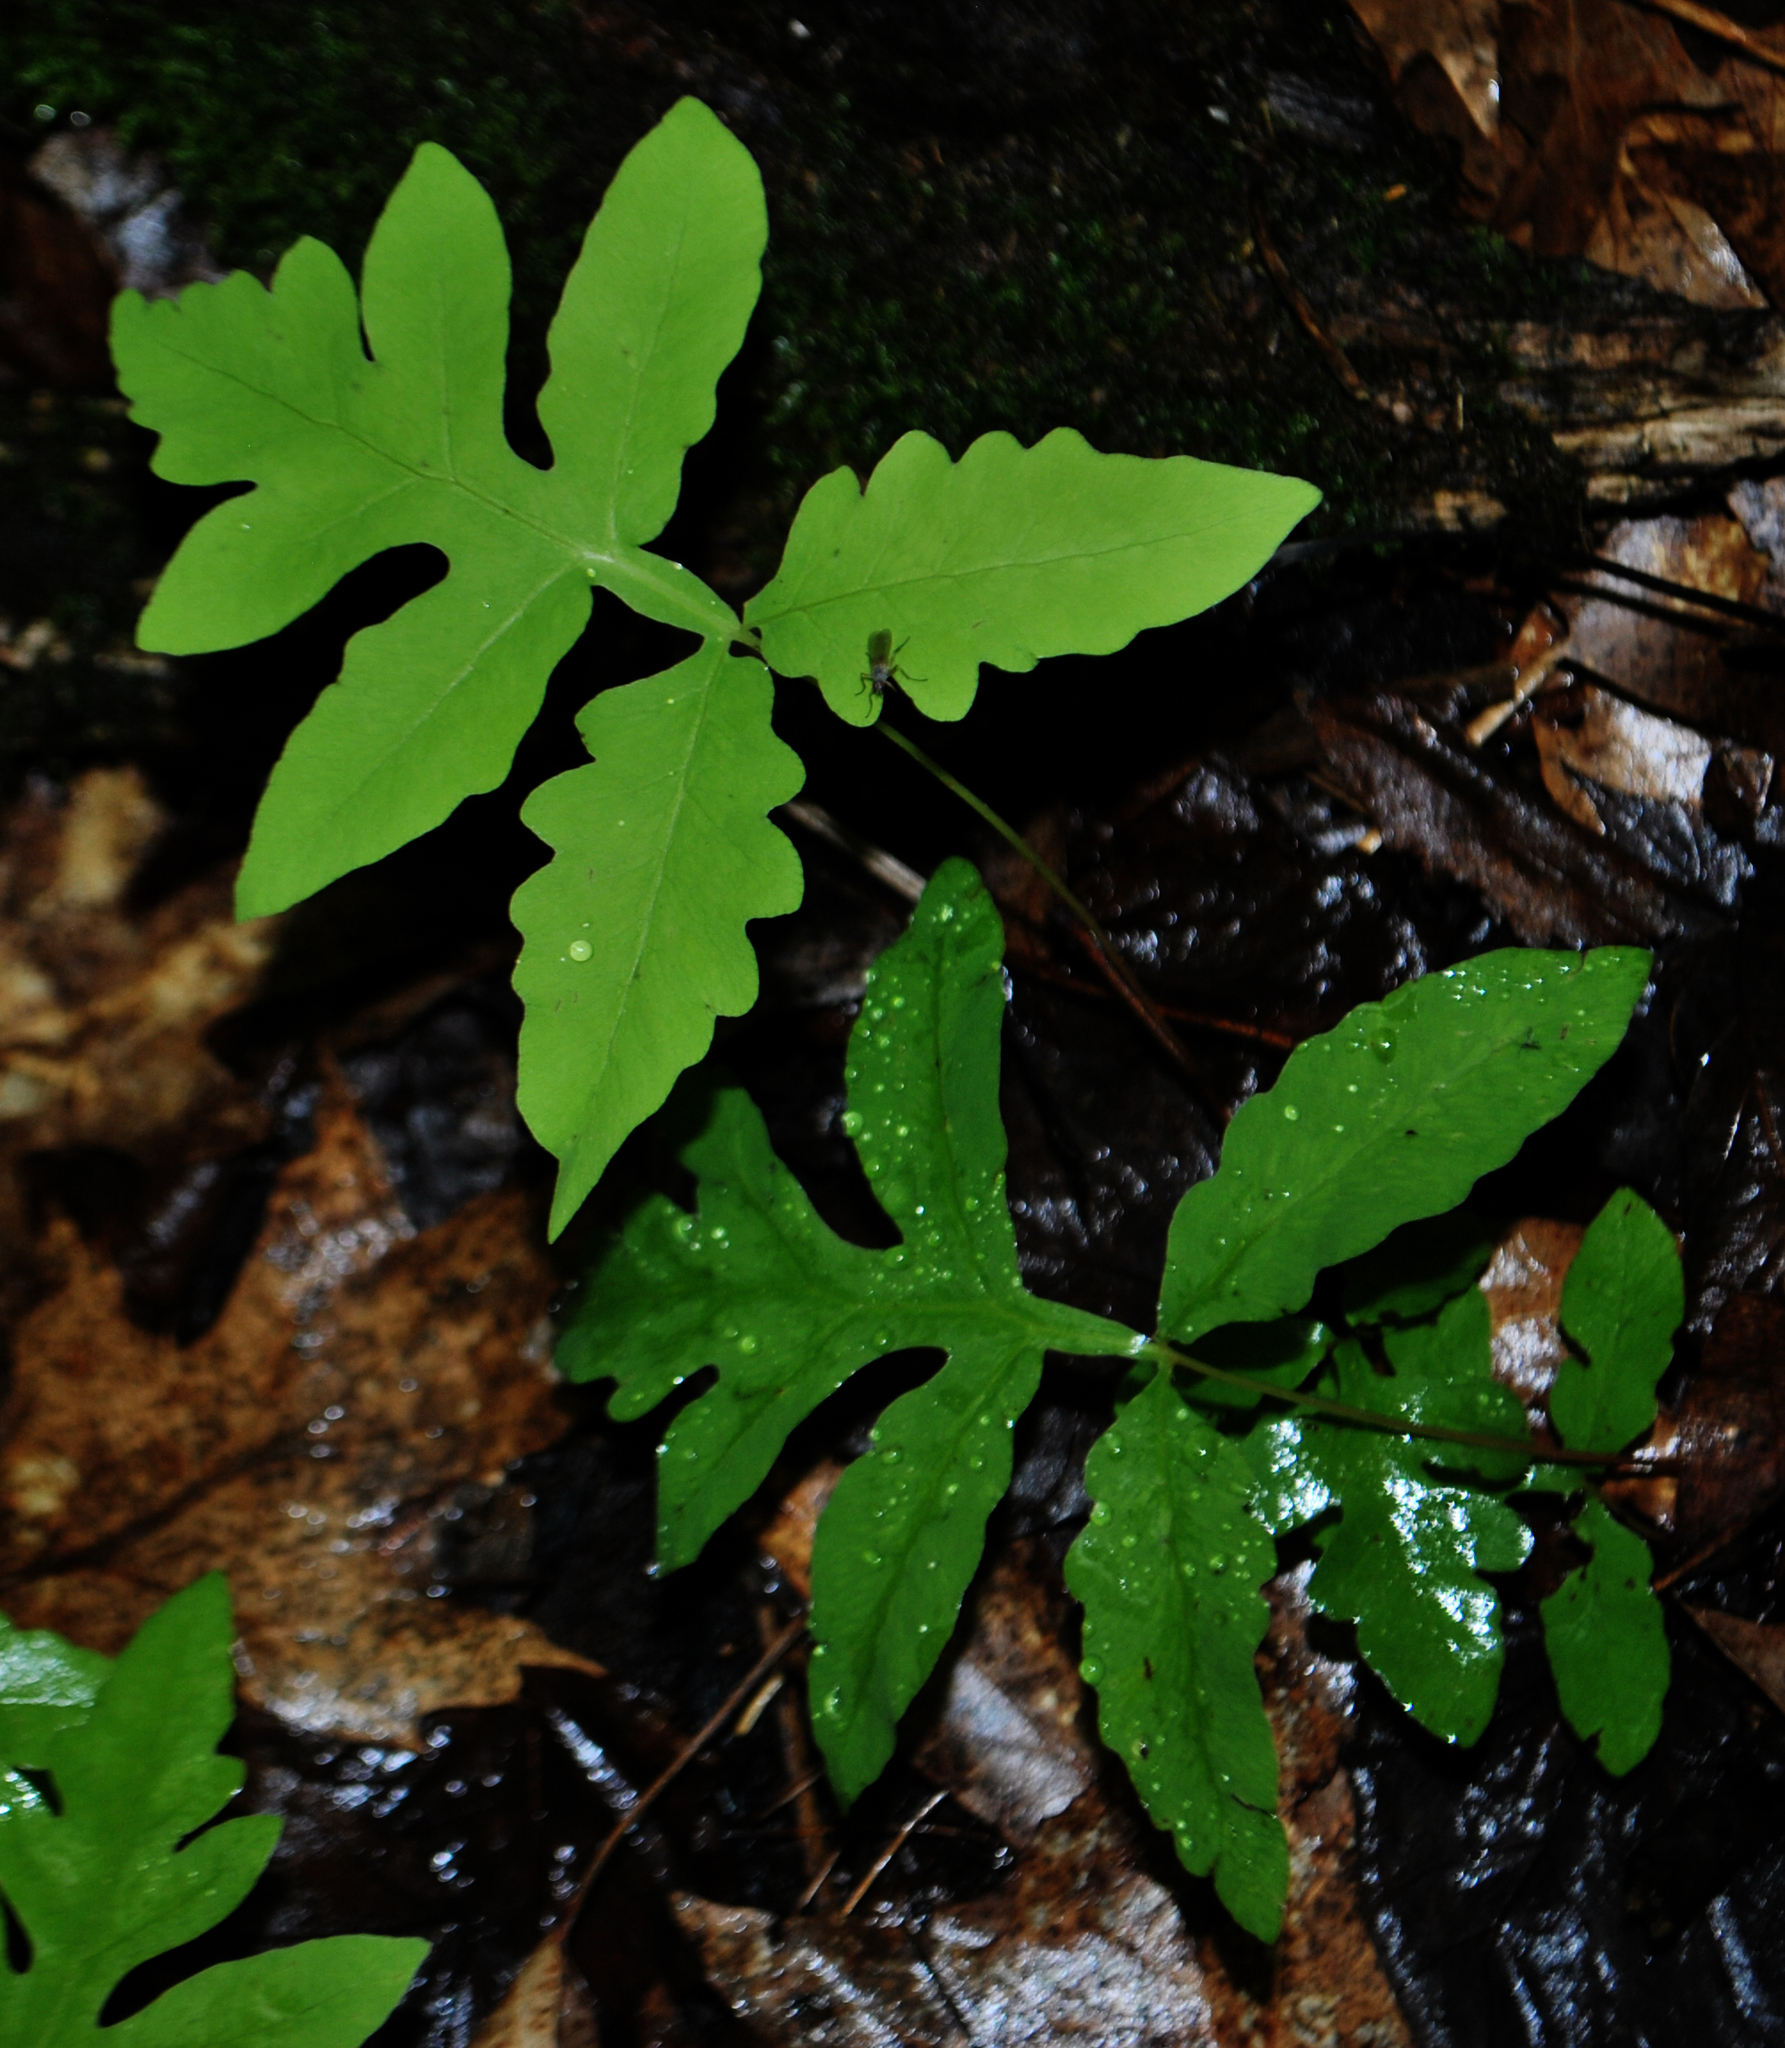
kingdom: Plantae
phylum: Tracheophyta
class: Polypodiopsida
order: Polypodiales
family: Onocleaceae
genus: Onoclea
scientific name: Onoclea sensibilis
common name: Sensitive fern
